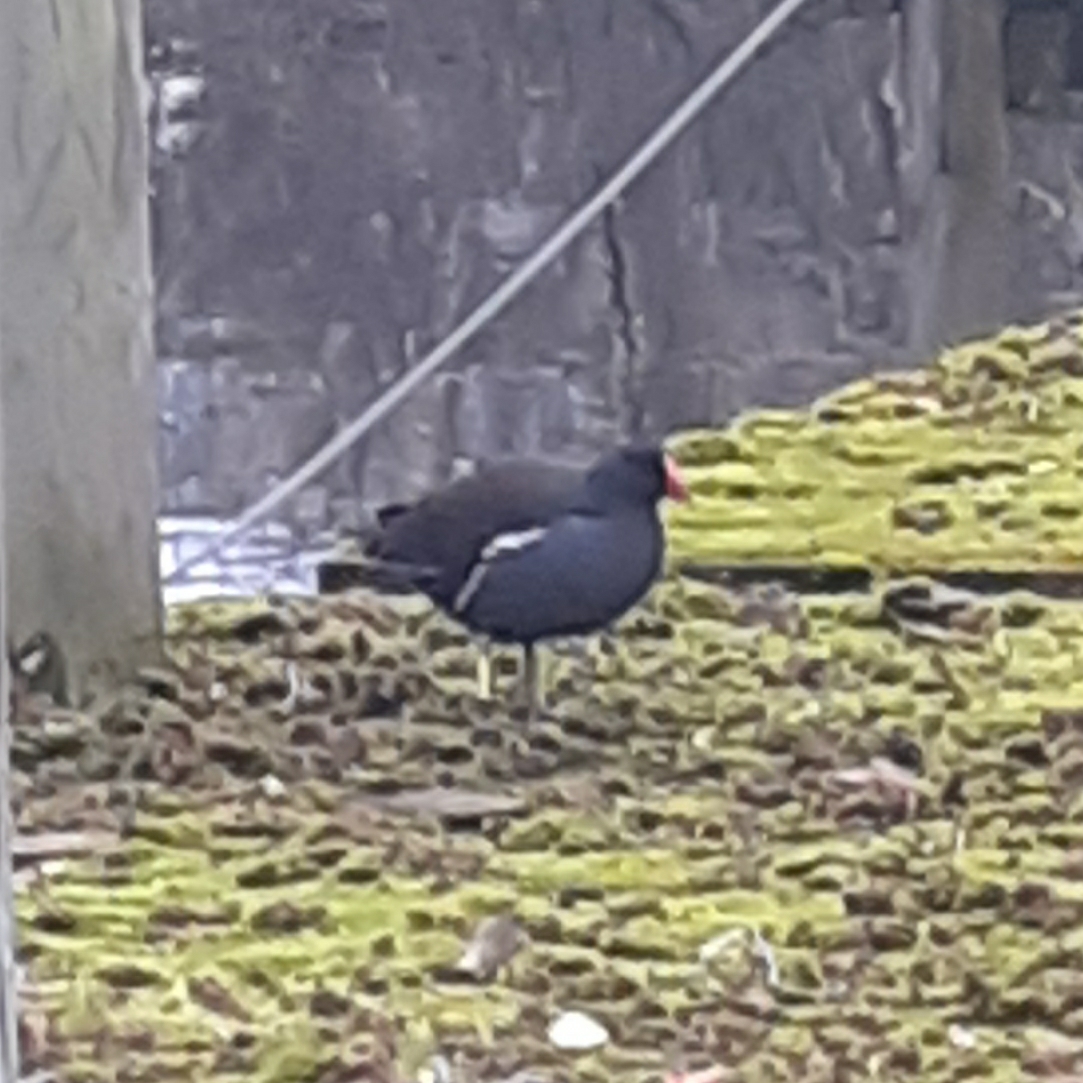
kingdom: Animalia
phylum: Chordata
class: Aves
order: Gruiformes
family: Rallidae
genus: Gallinula
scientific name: Gallinula chloropus
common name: Common moorhen
